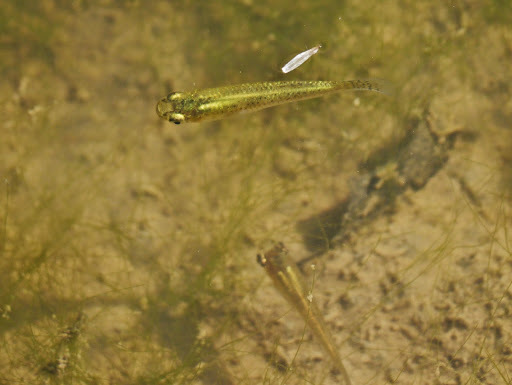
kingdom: Animalia
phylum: Chordata
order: Cyprinodontiformes
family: Poeciliidae
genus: Gambusia
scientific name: Gambusia holbrooki
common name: Eastern mosquitofish
